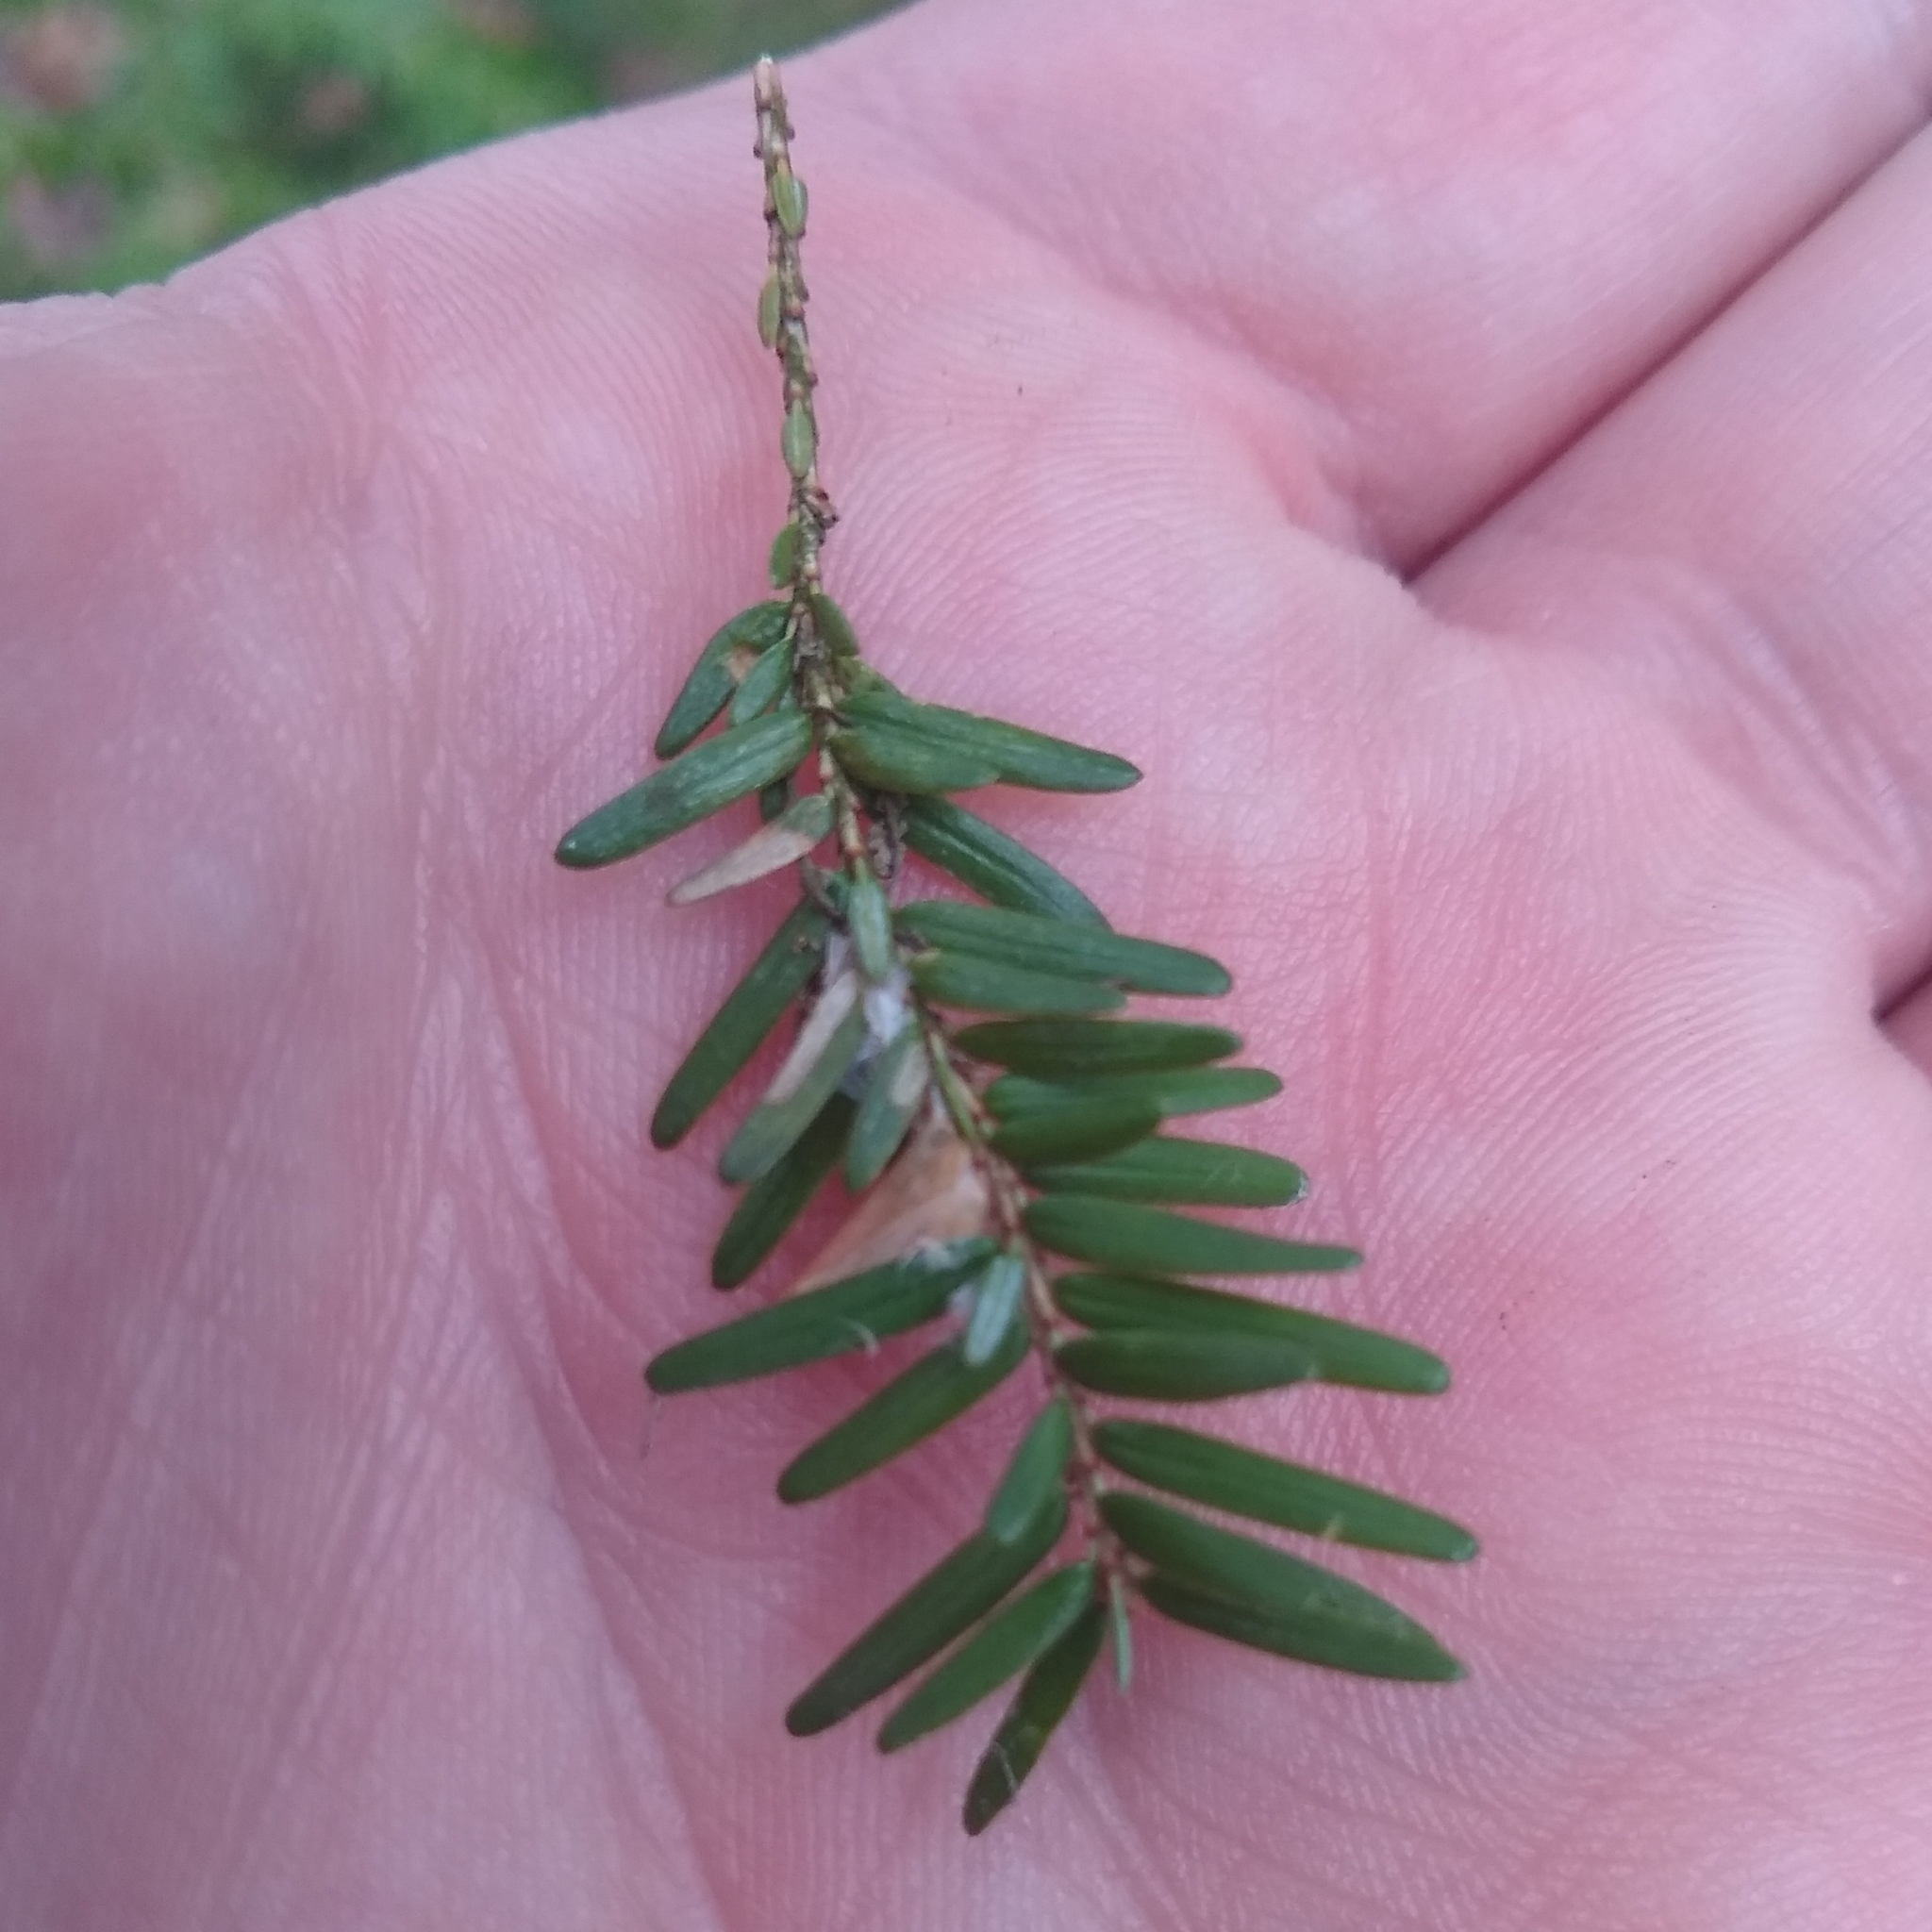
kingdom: Animalia
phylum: Arthropoda
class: Insecta
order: Lepidoptera
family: Gelechiidae
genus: Coleotechnites
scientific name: Coleotechnites apicitripunctella
